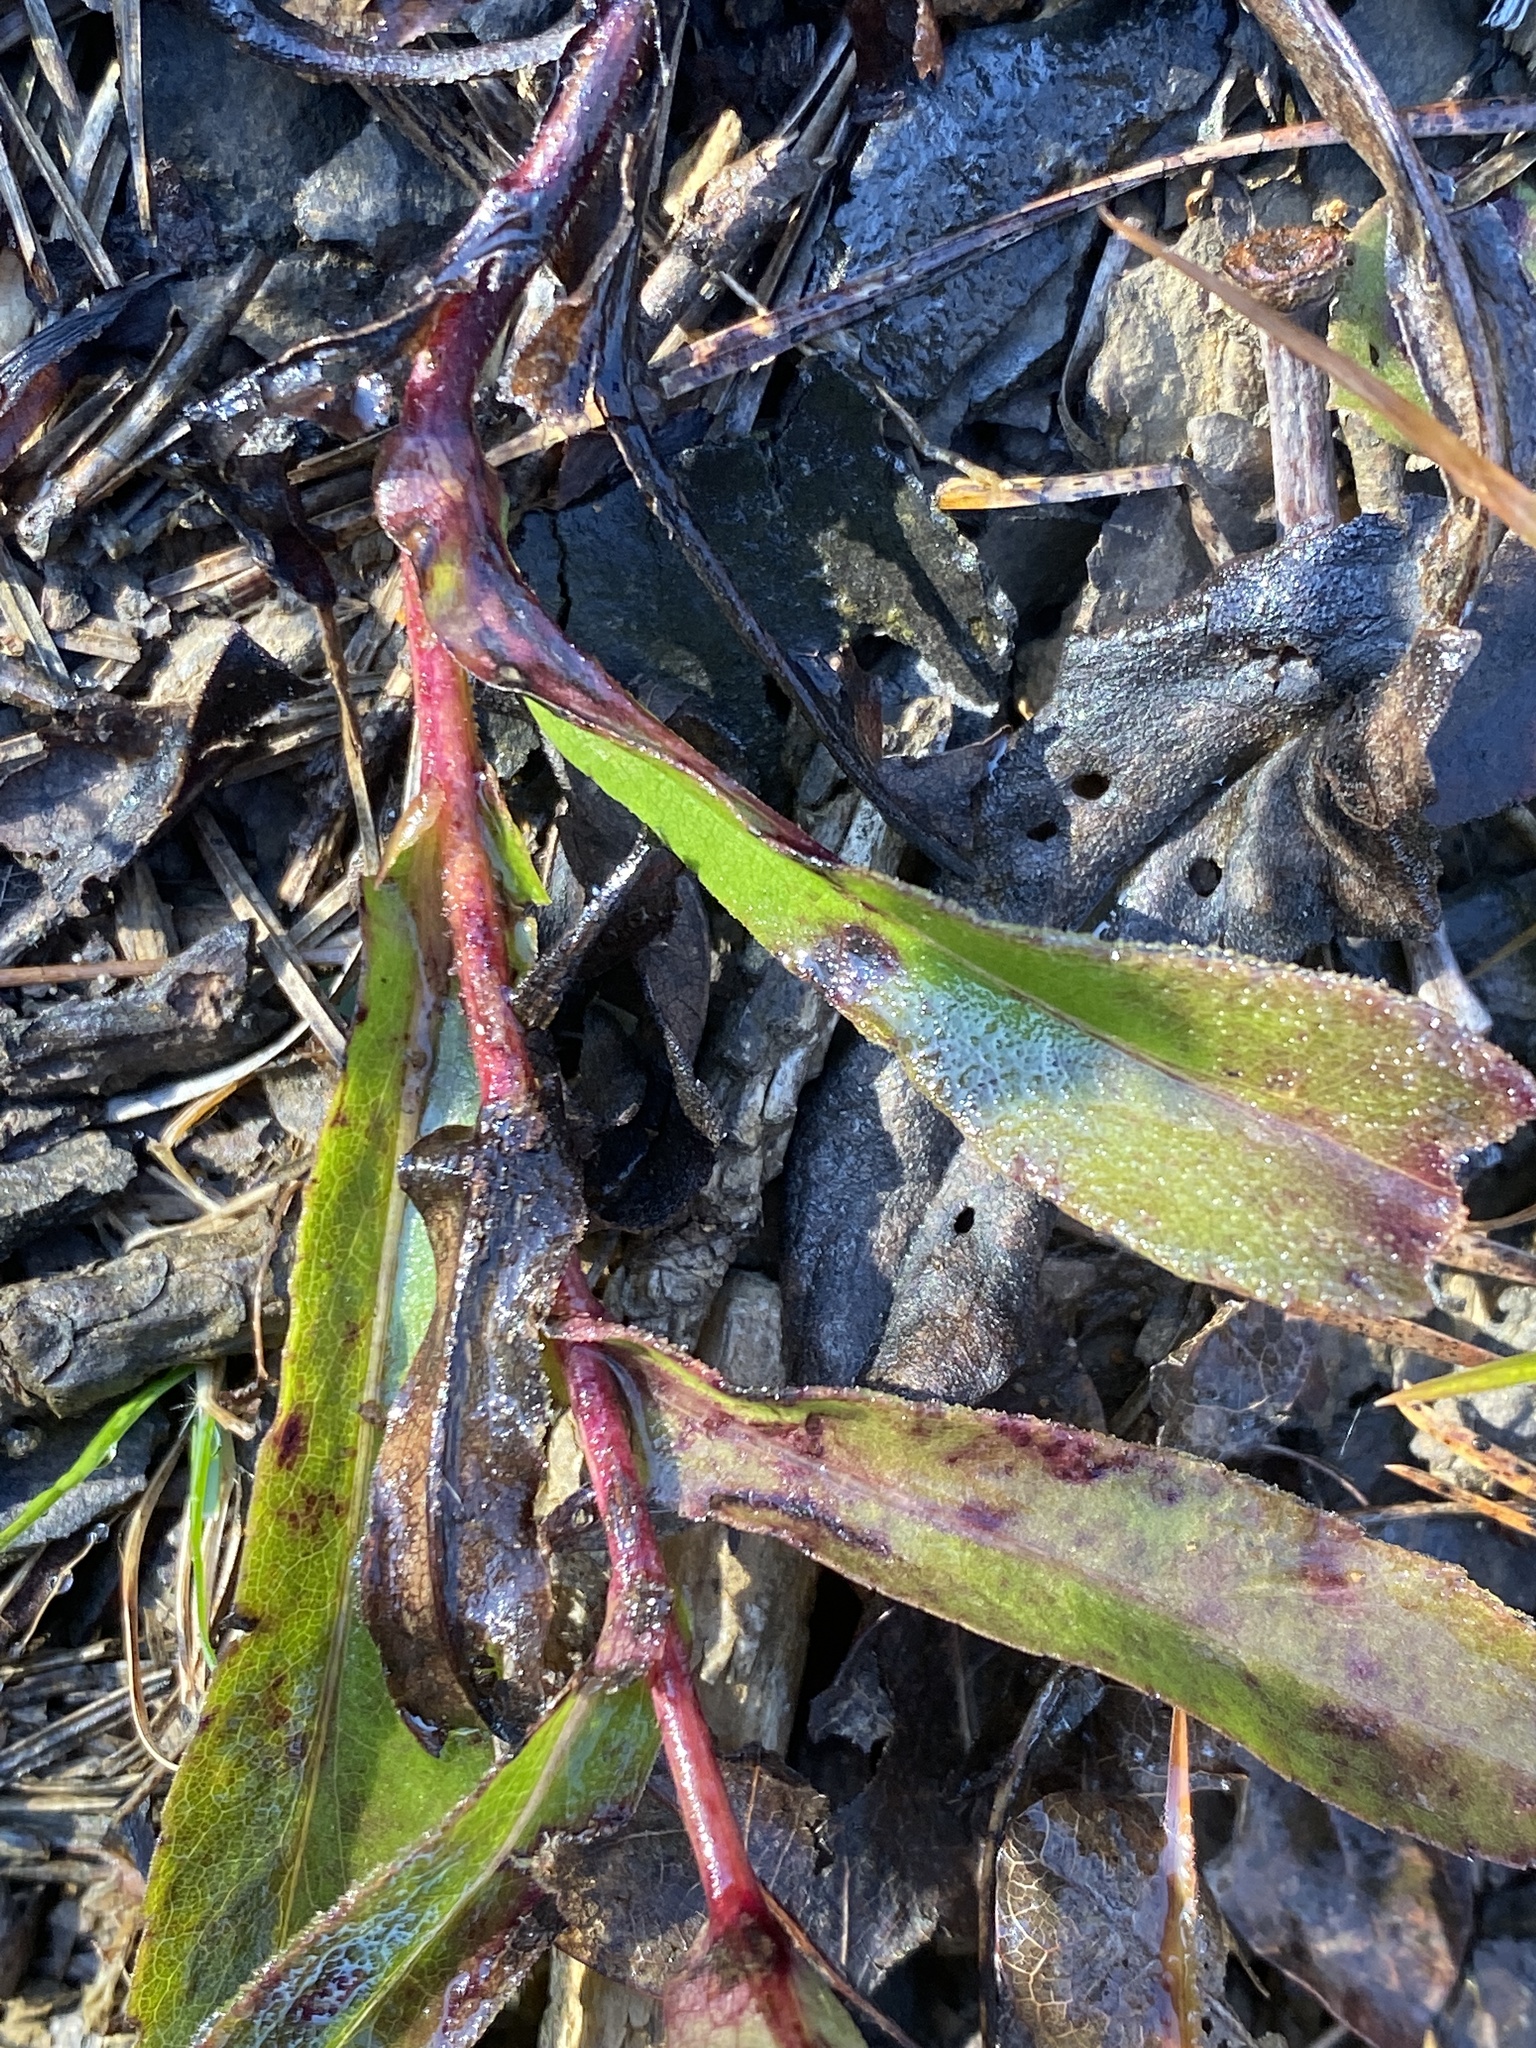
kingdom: Plantae
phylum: Tracheophyta
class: Magnoliopsida
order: Asterales
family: Asteraceae
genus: Symphyotrichum
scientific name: Symphyotrichum rhiannon
